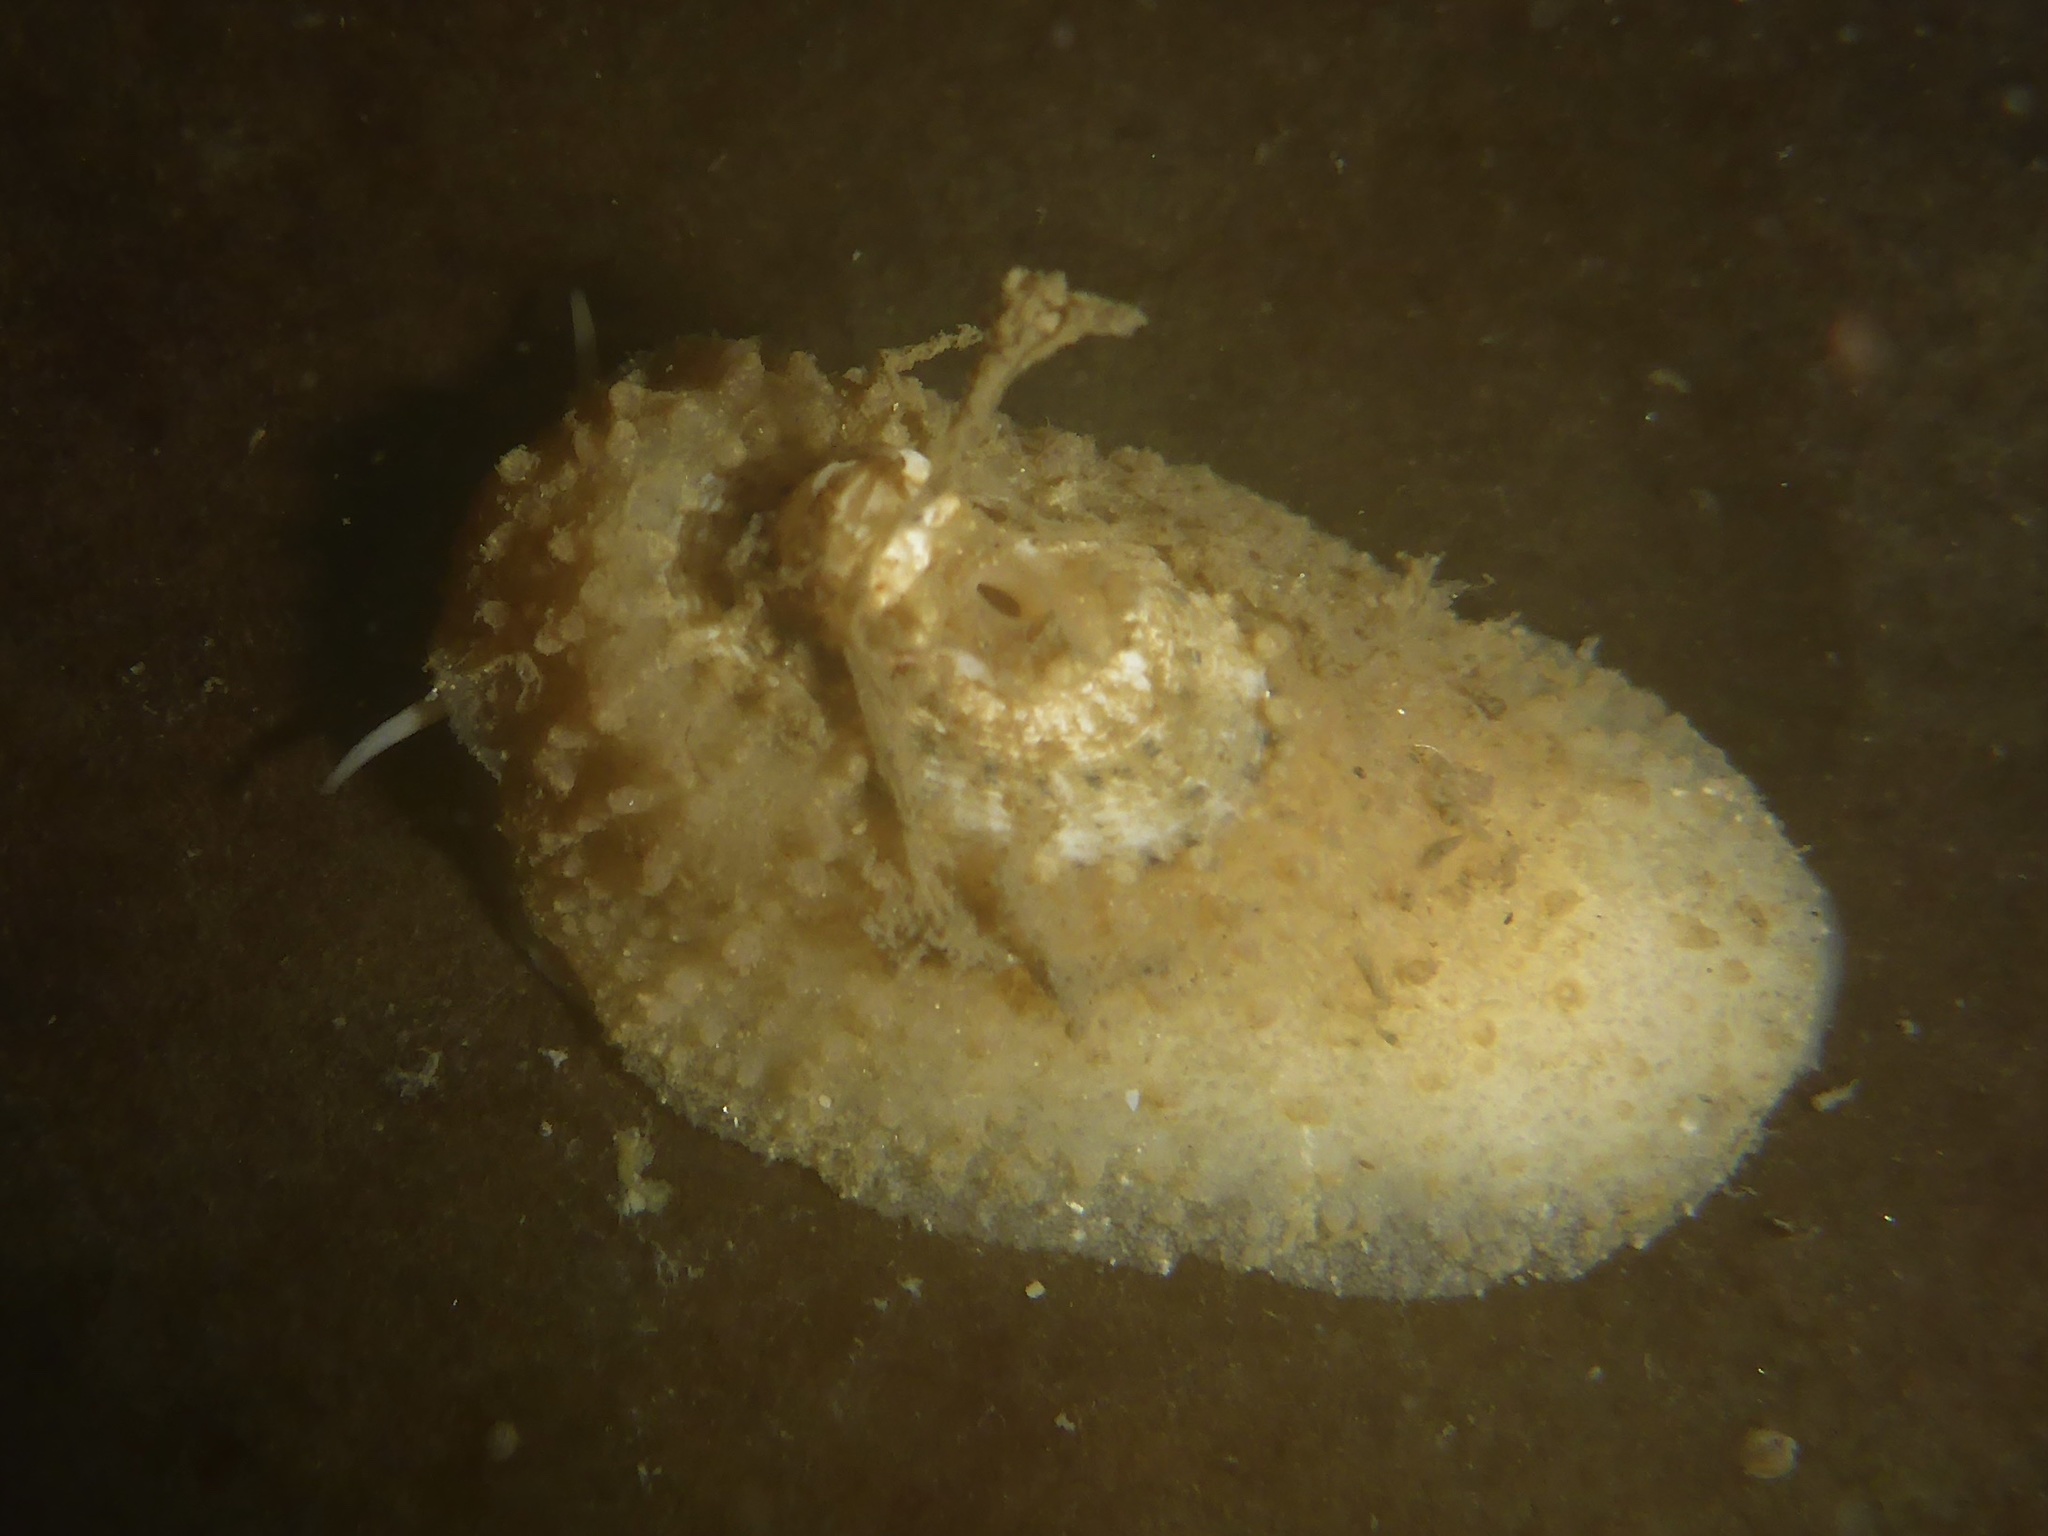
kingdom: Animalia
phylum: Mollusca
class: Gastropoda
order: Lepetellida
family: Fissurellidae
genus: Fissurellidea
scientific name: Fissurellidea bimaculata
